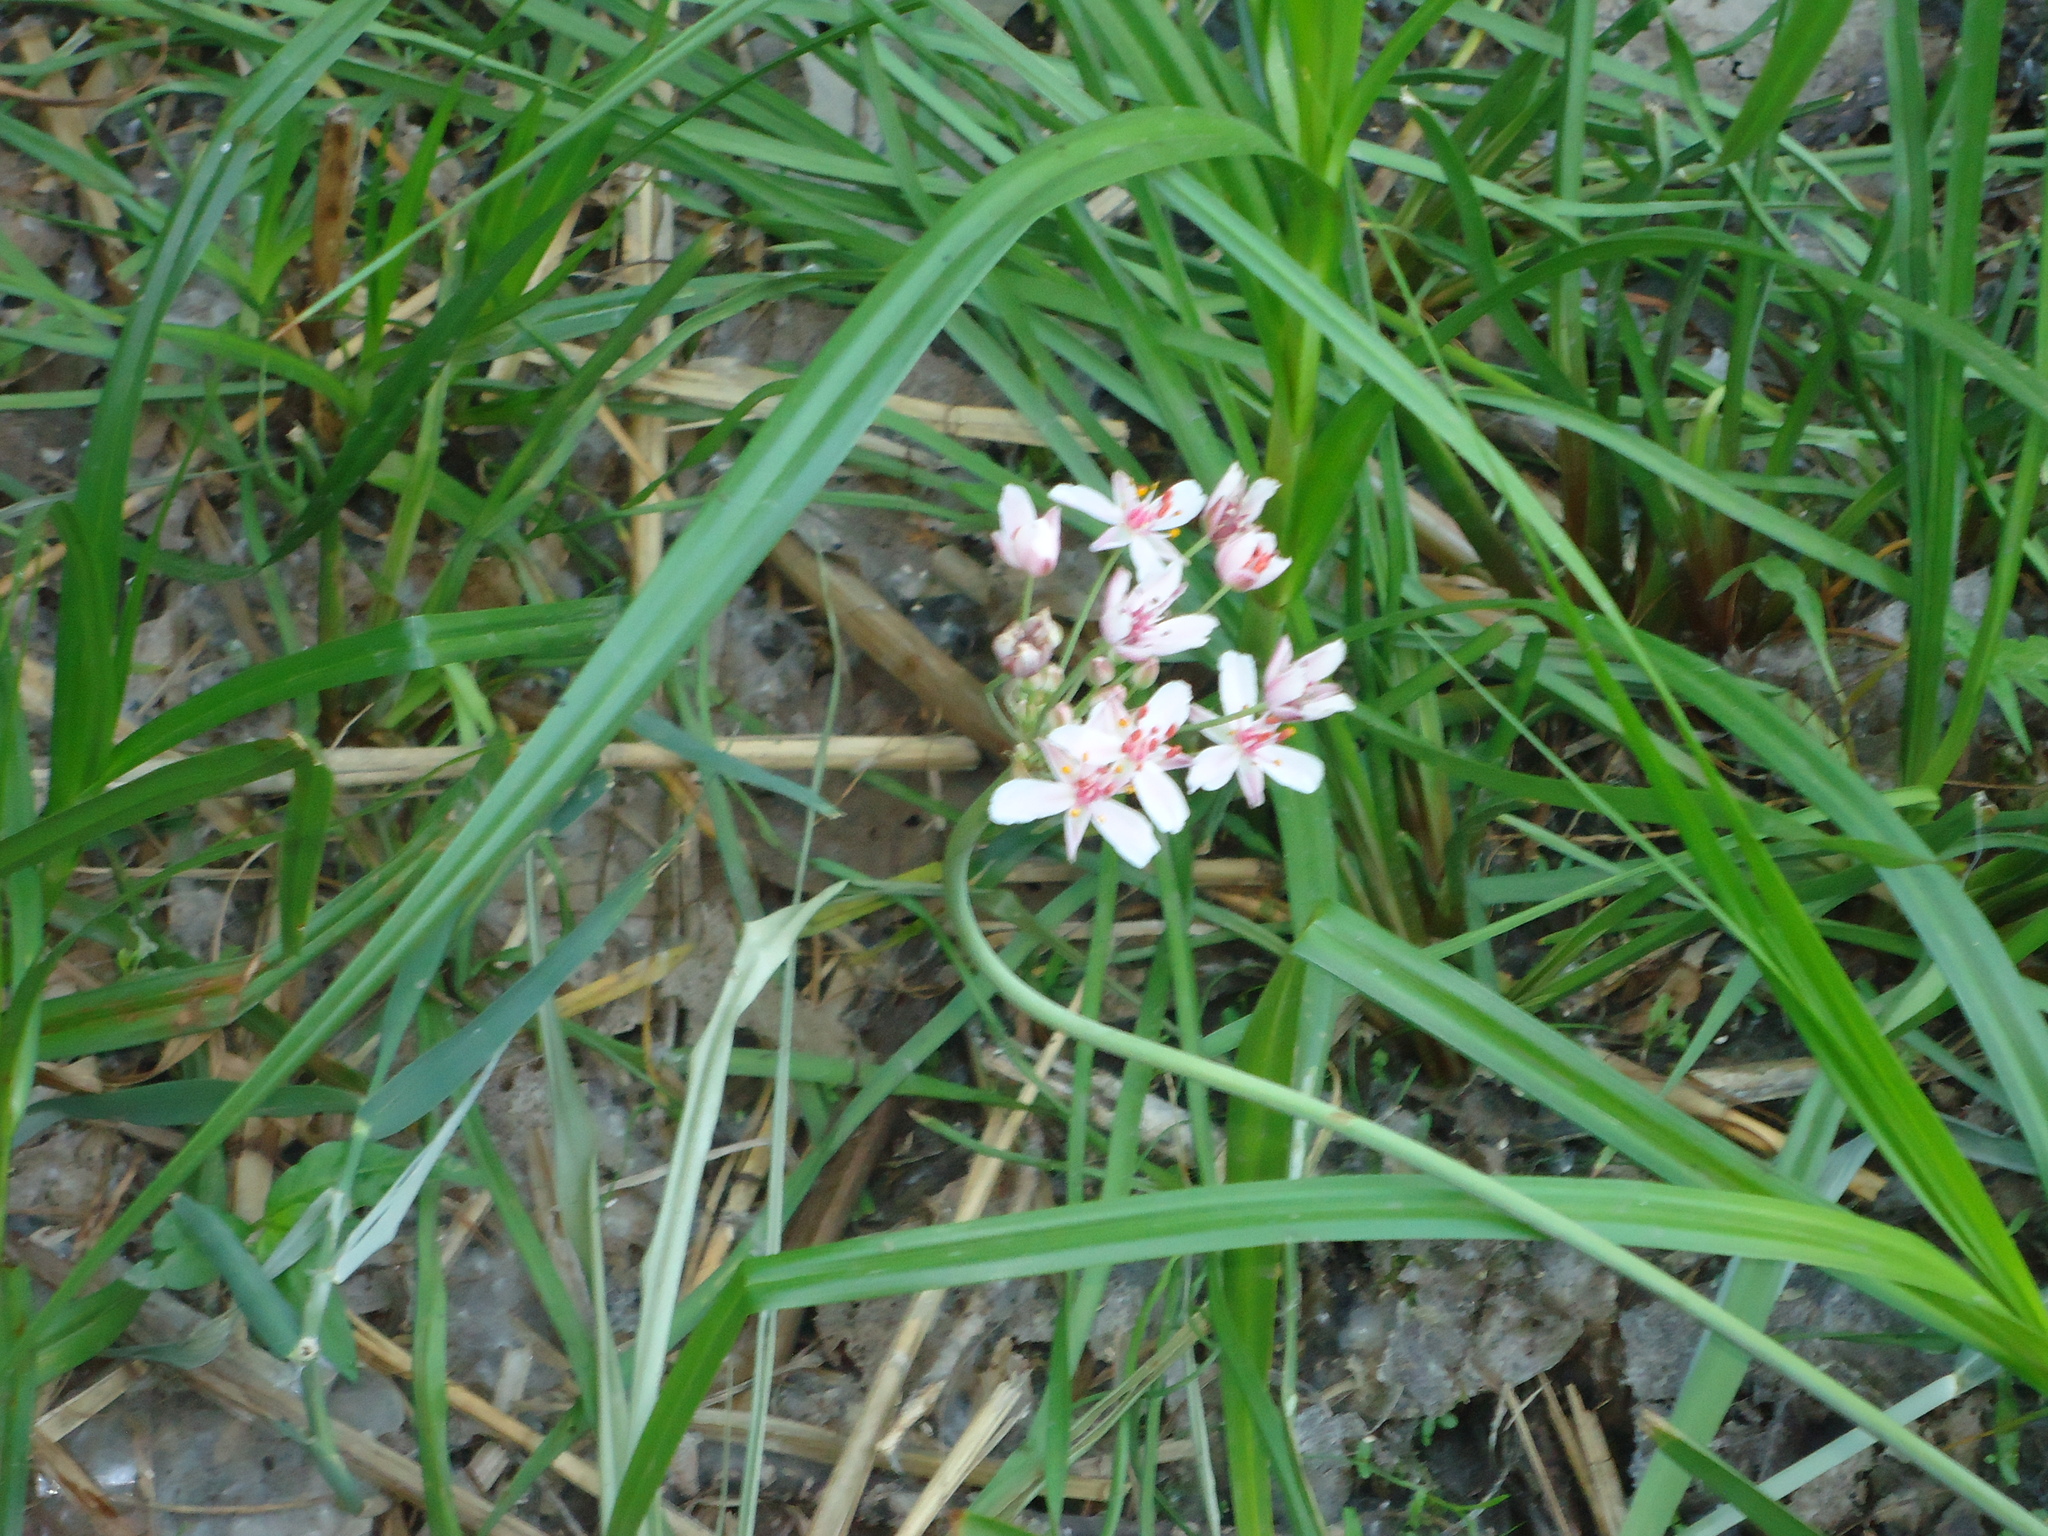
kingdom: Plantae
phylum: Tracheophyta
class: Liliopsida
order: Alismatales
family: Butomaceae
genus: Butomus
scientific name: Butomus umbellatus
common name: Flowering-rush
